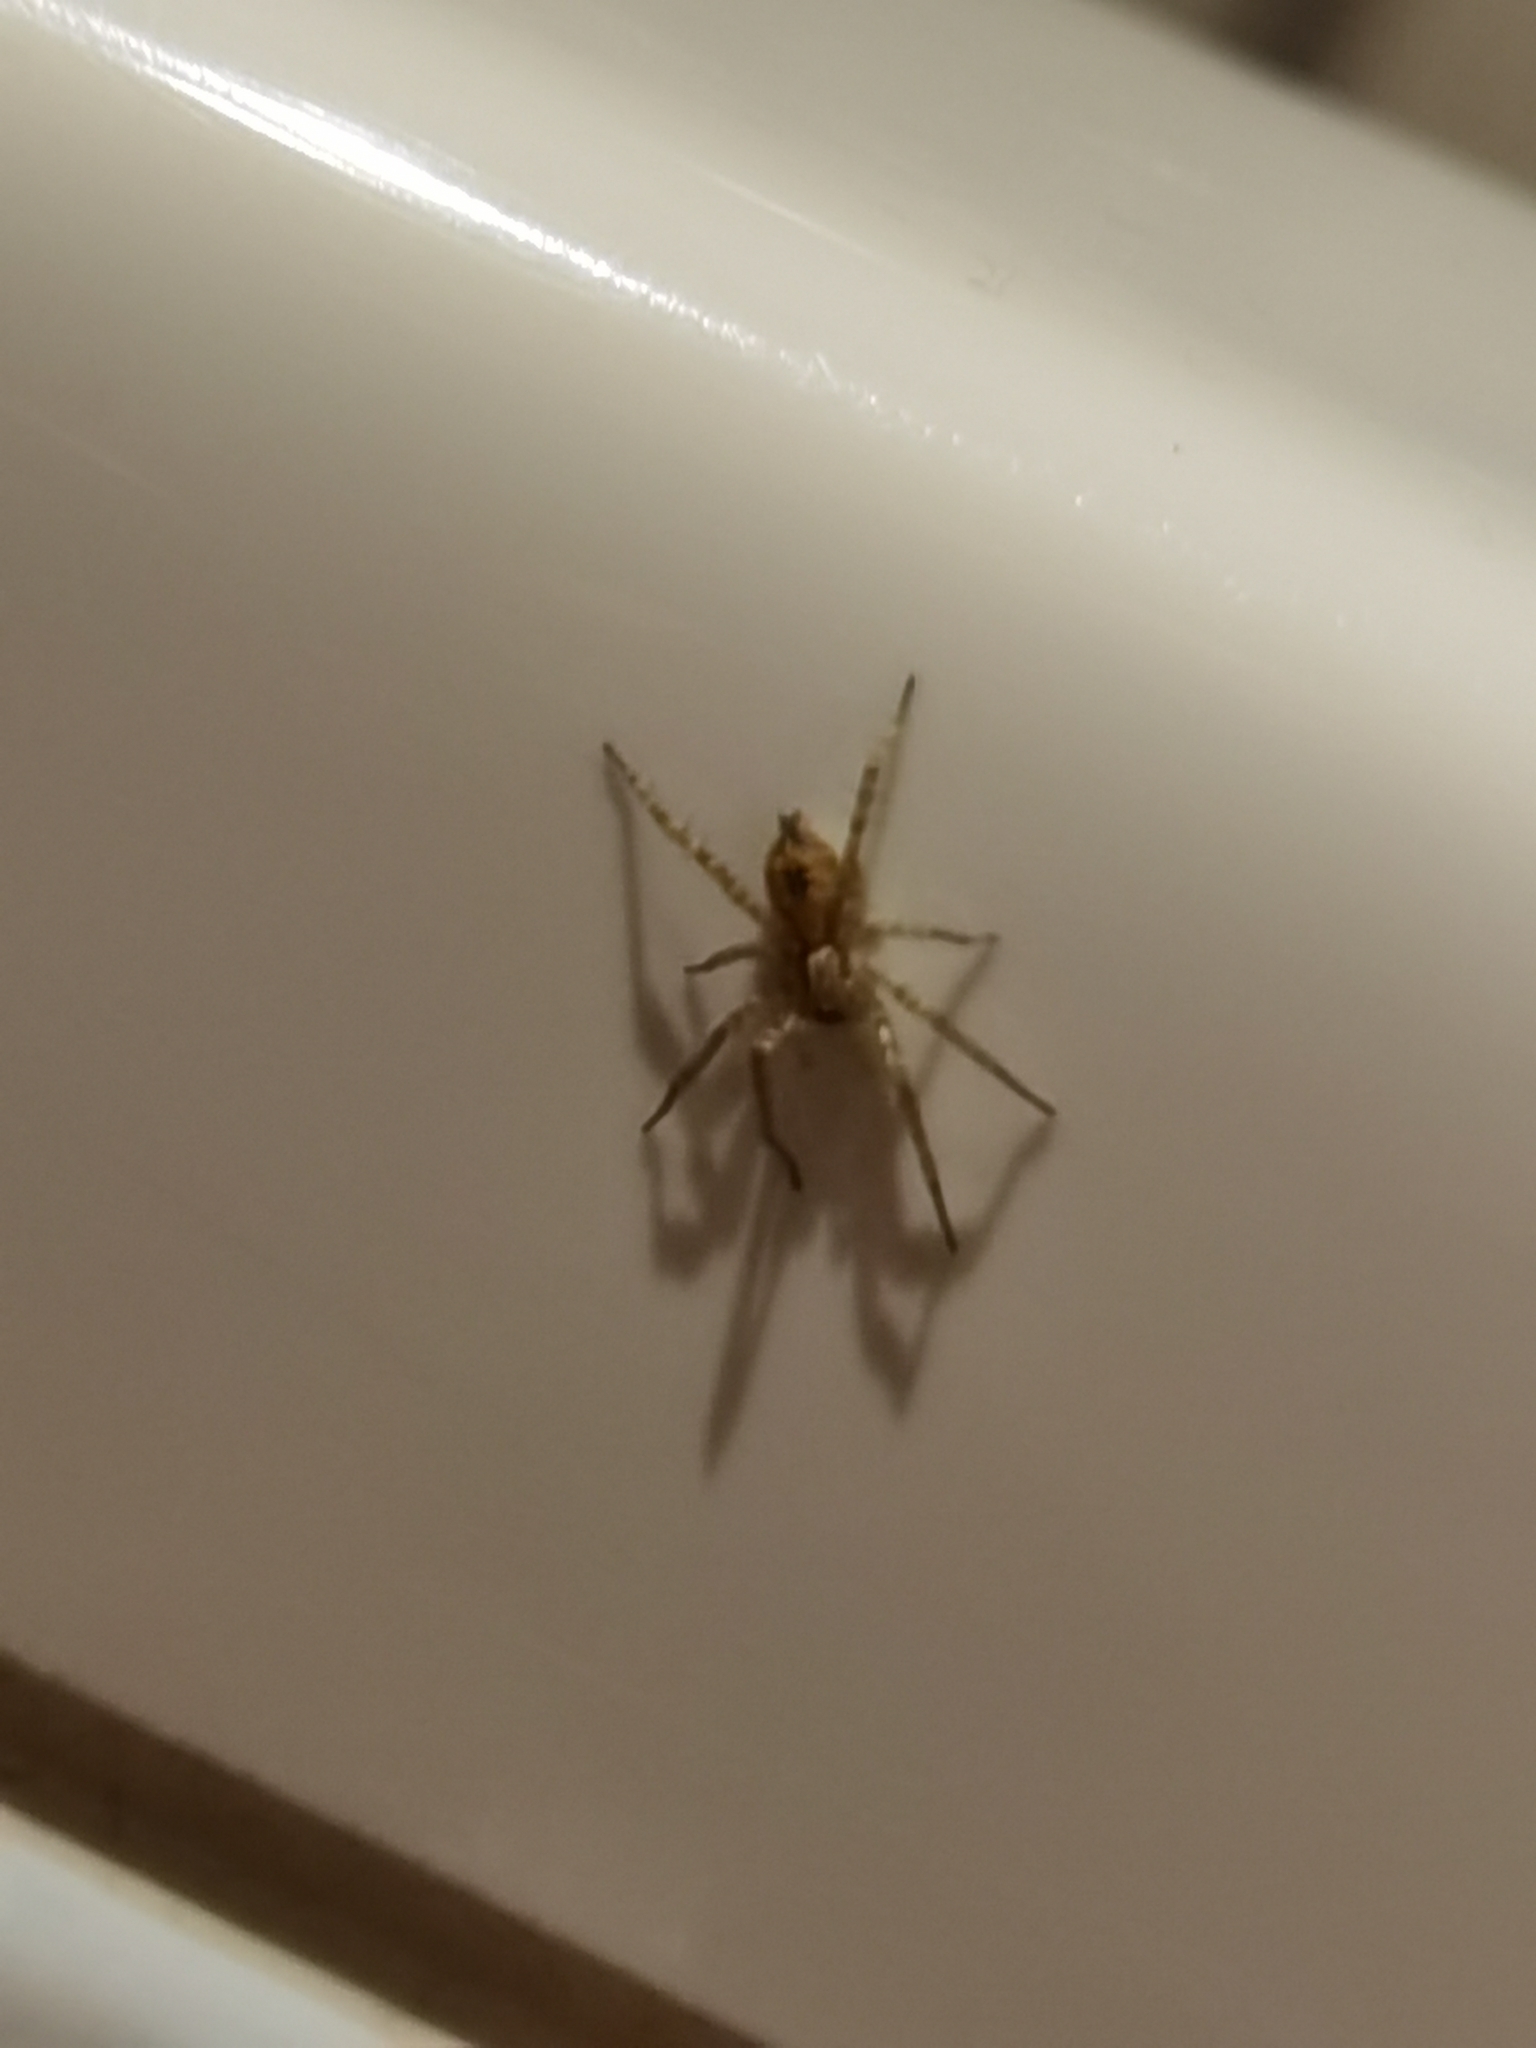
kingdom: Animalia
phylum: Arthropoda
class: Arachnida
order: Araneae
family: Anyphaenidae
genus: Anyphaena
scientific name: Anyphaena accentuata
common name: Buzzing spider
